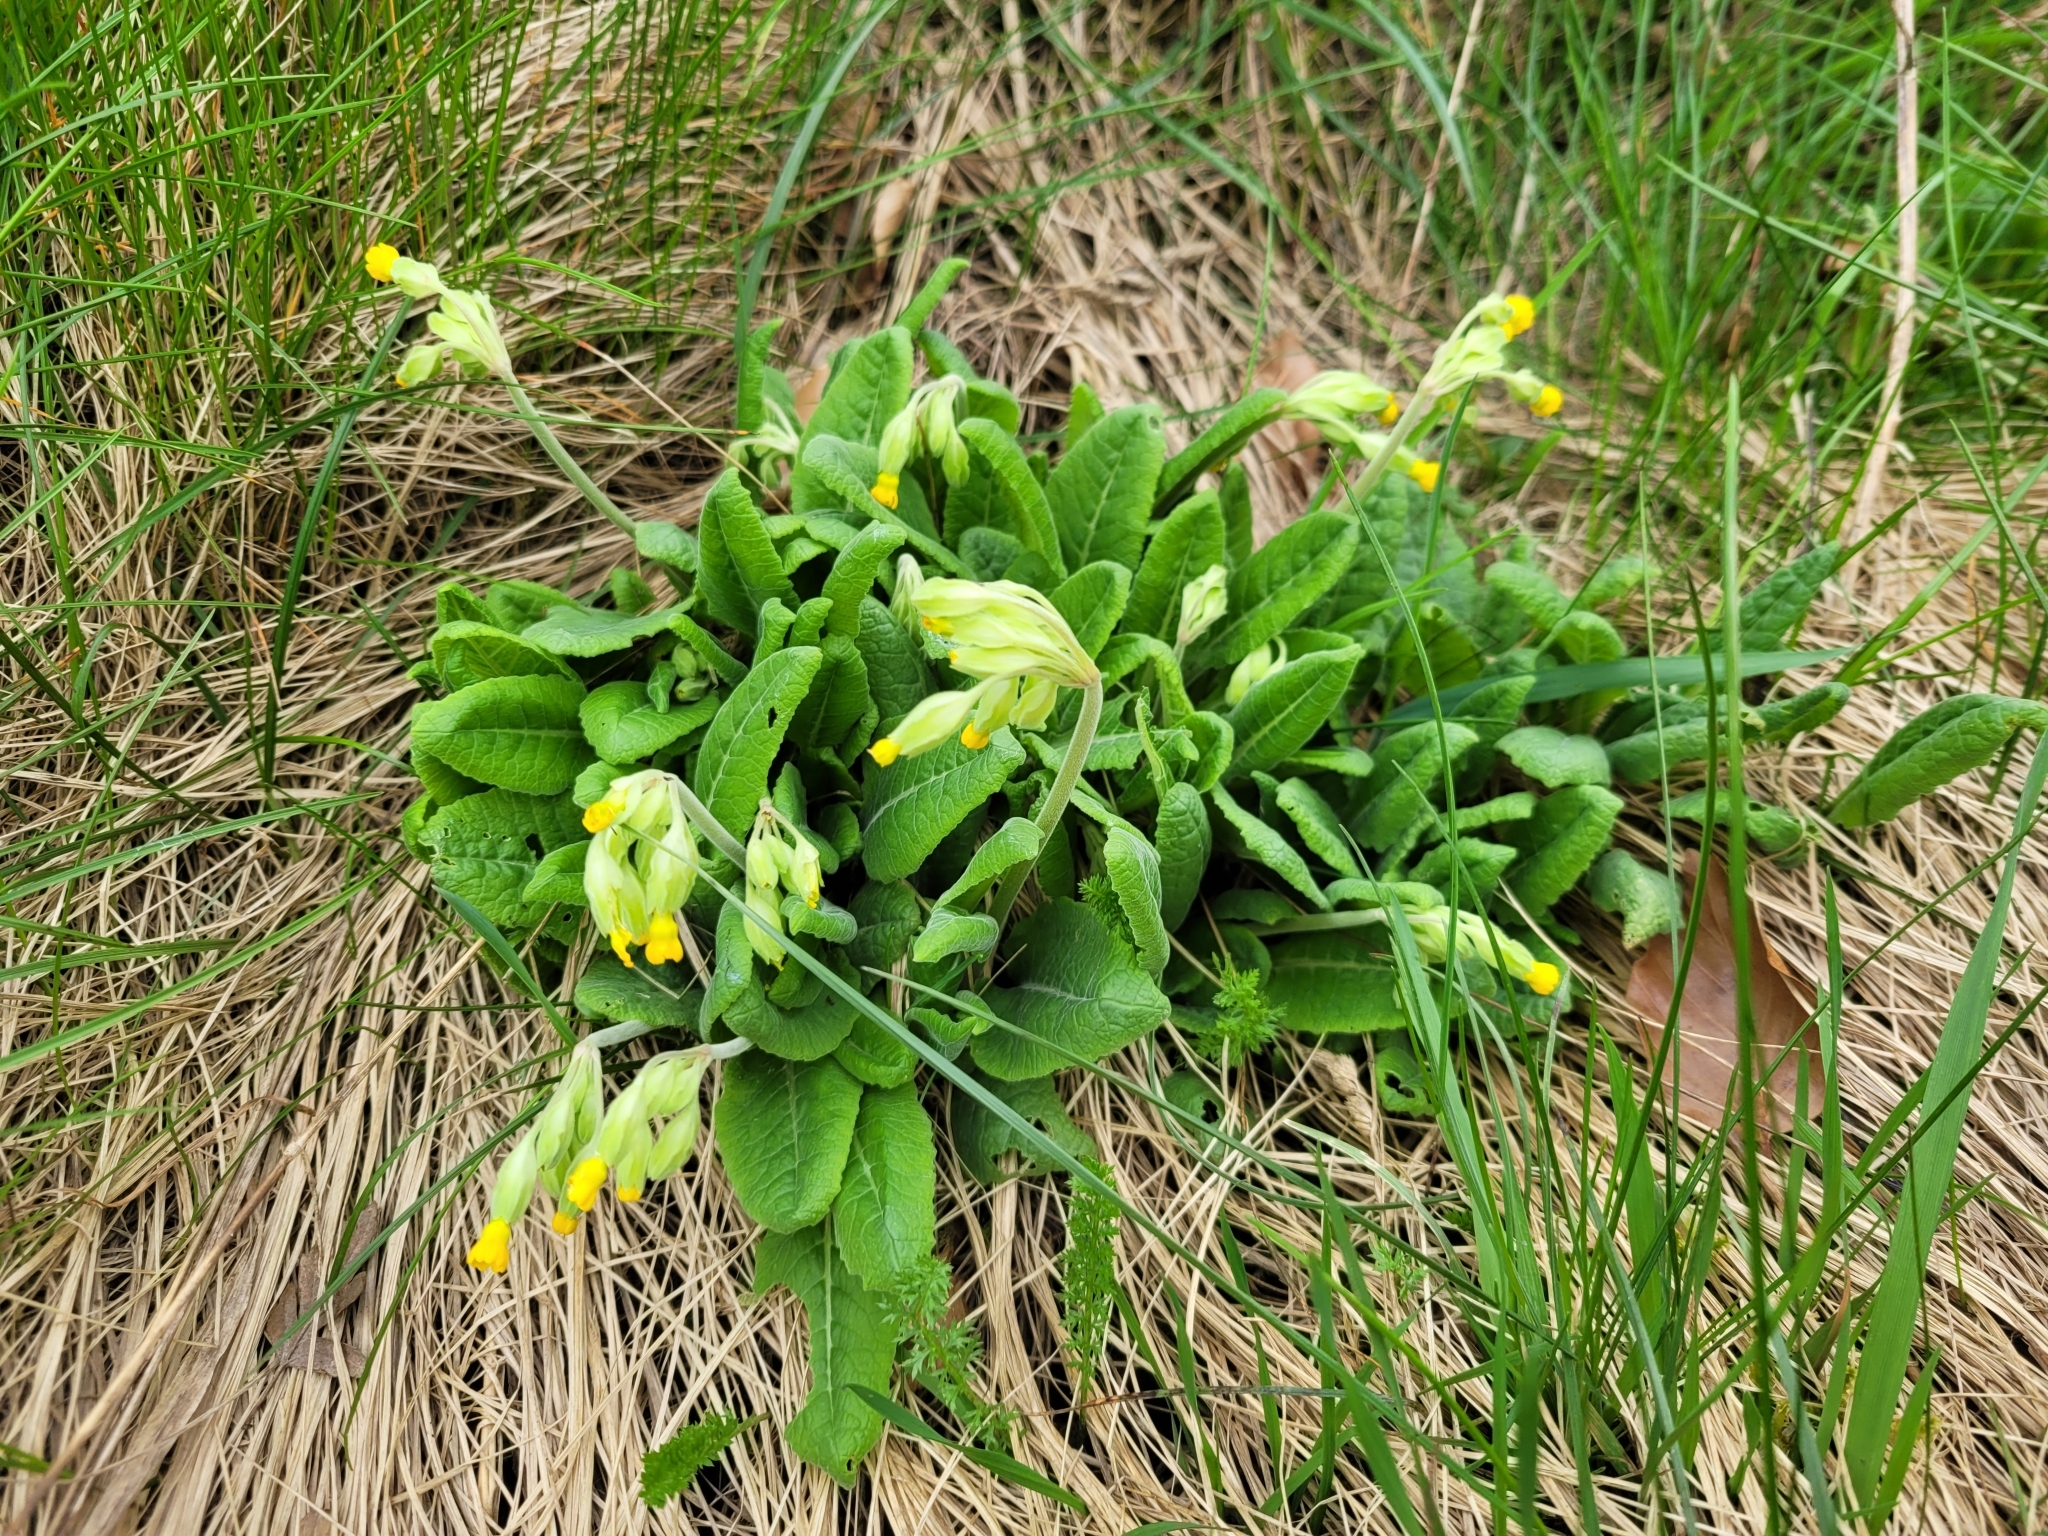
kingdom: Plantae
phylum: Tracheophyta
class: Magnoliopsida
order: Ericales
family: Primulaceae
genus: Primula
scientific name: Primula veris
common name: Cowslip
